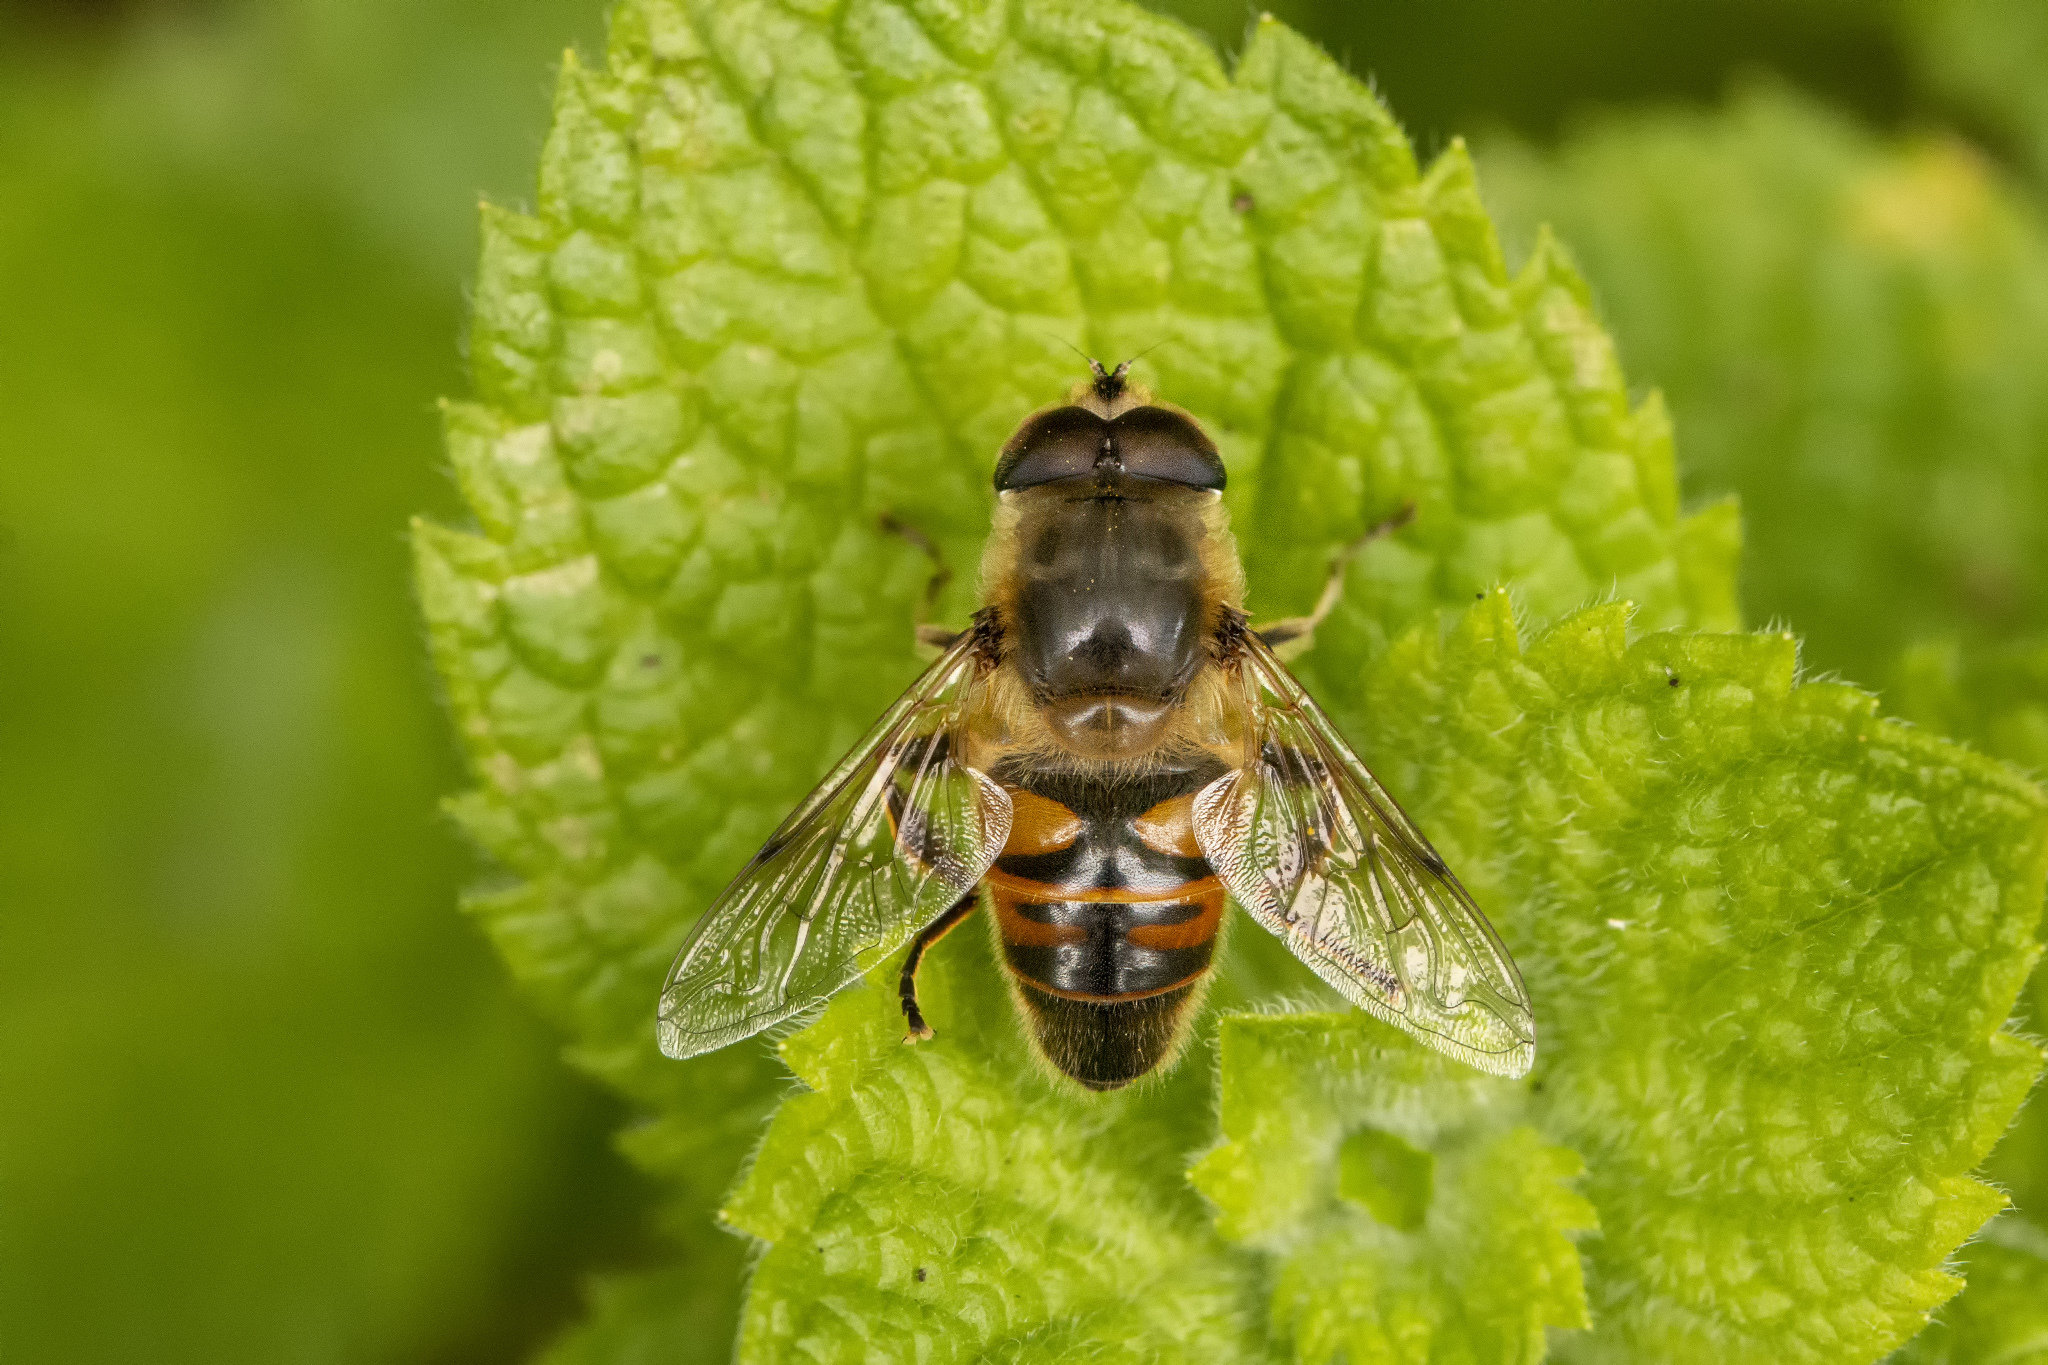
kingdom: Animalia
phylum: Arthropoda
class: Insecta
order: Diptera
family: Syrphidae
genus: Eristalis
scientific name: Eristalis tenax
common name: Drone fly
